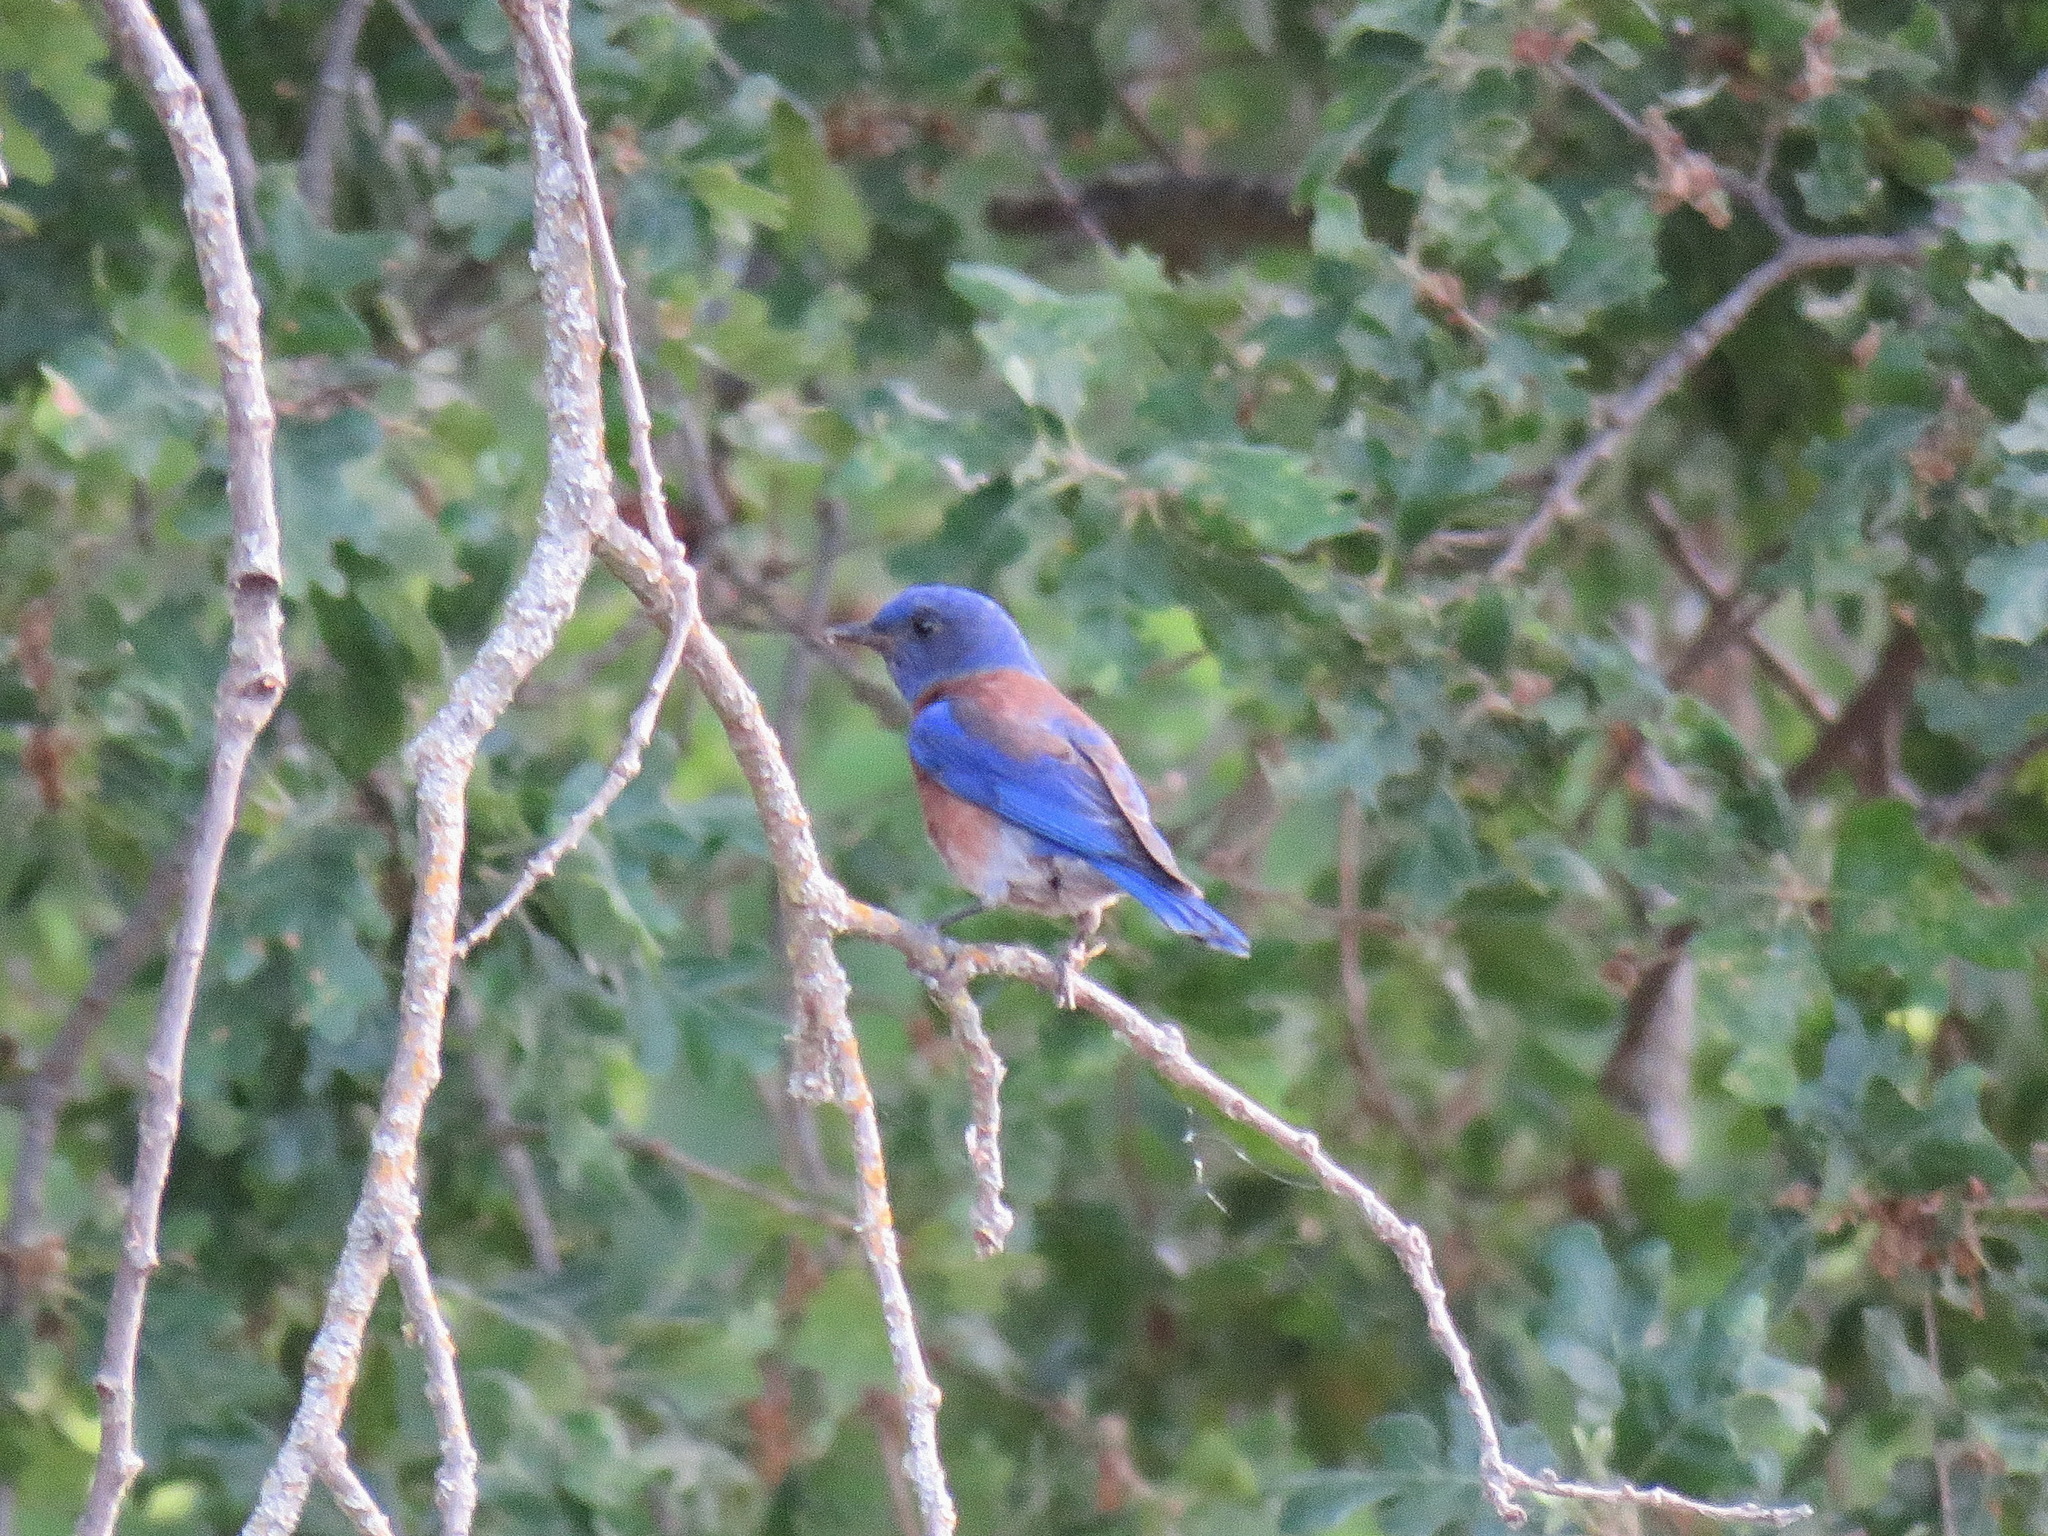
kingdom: Animalia
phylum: Chordata
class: Aves
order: Passeriformes
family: Turdidae
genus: Sialia
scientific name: Sialia mexicana
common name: Western bluebird
